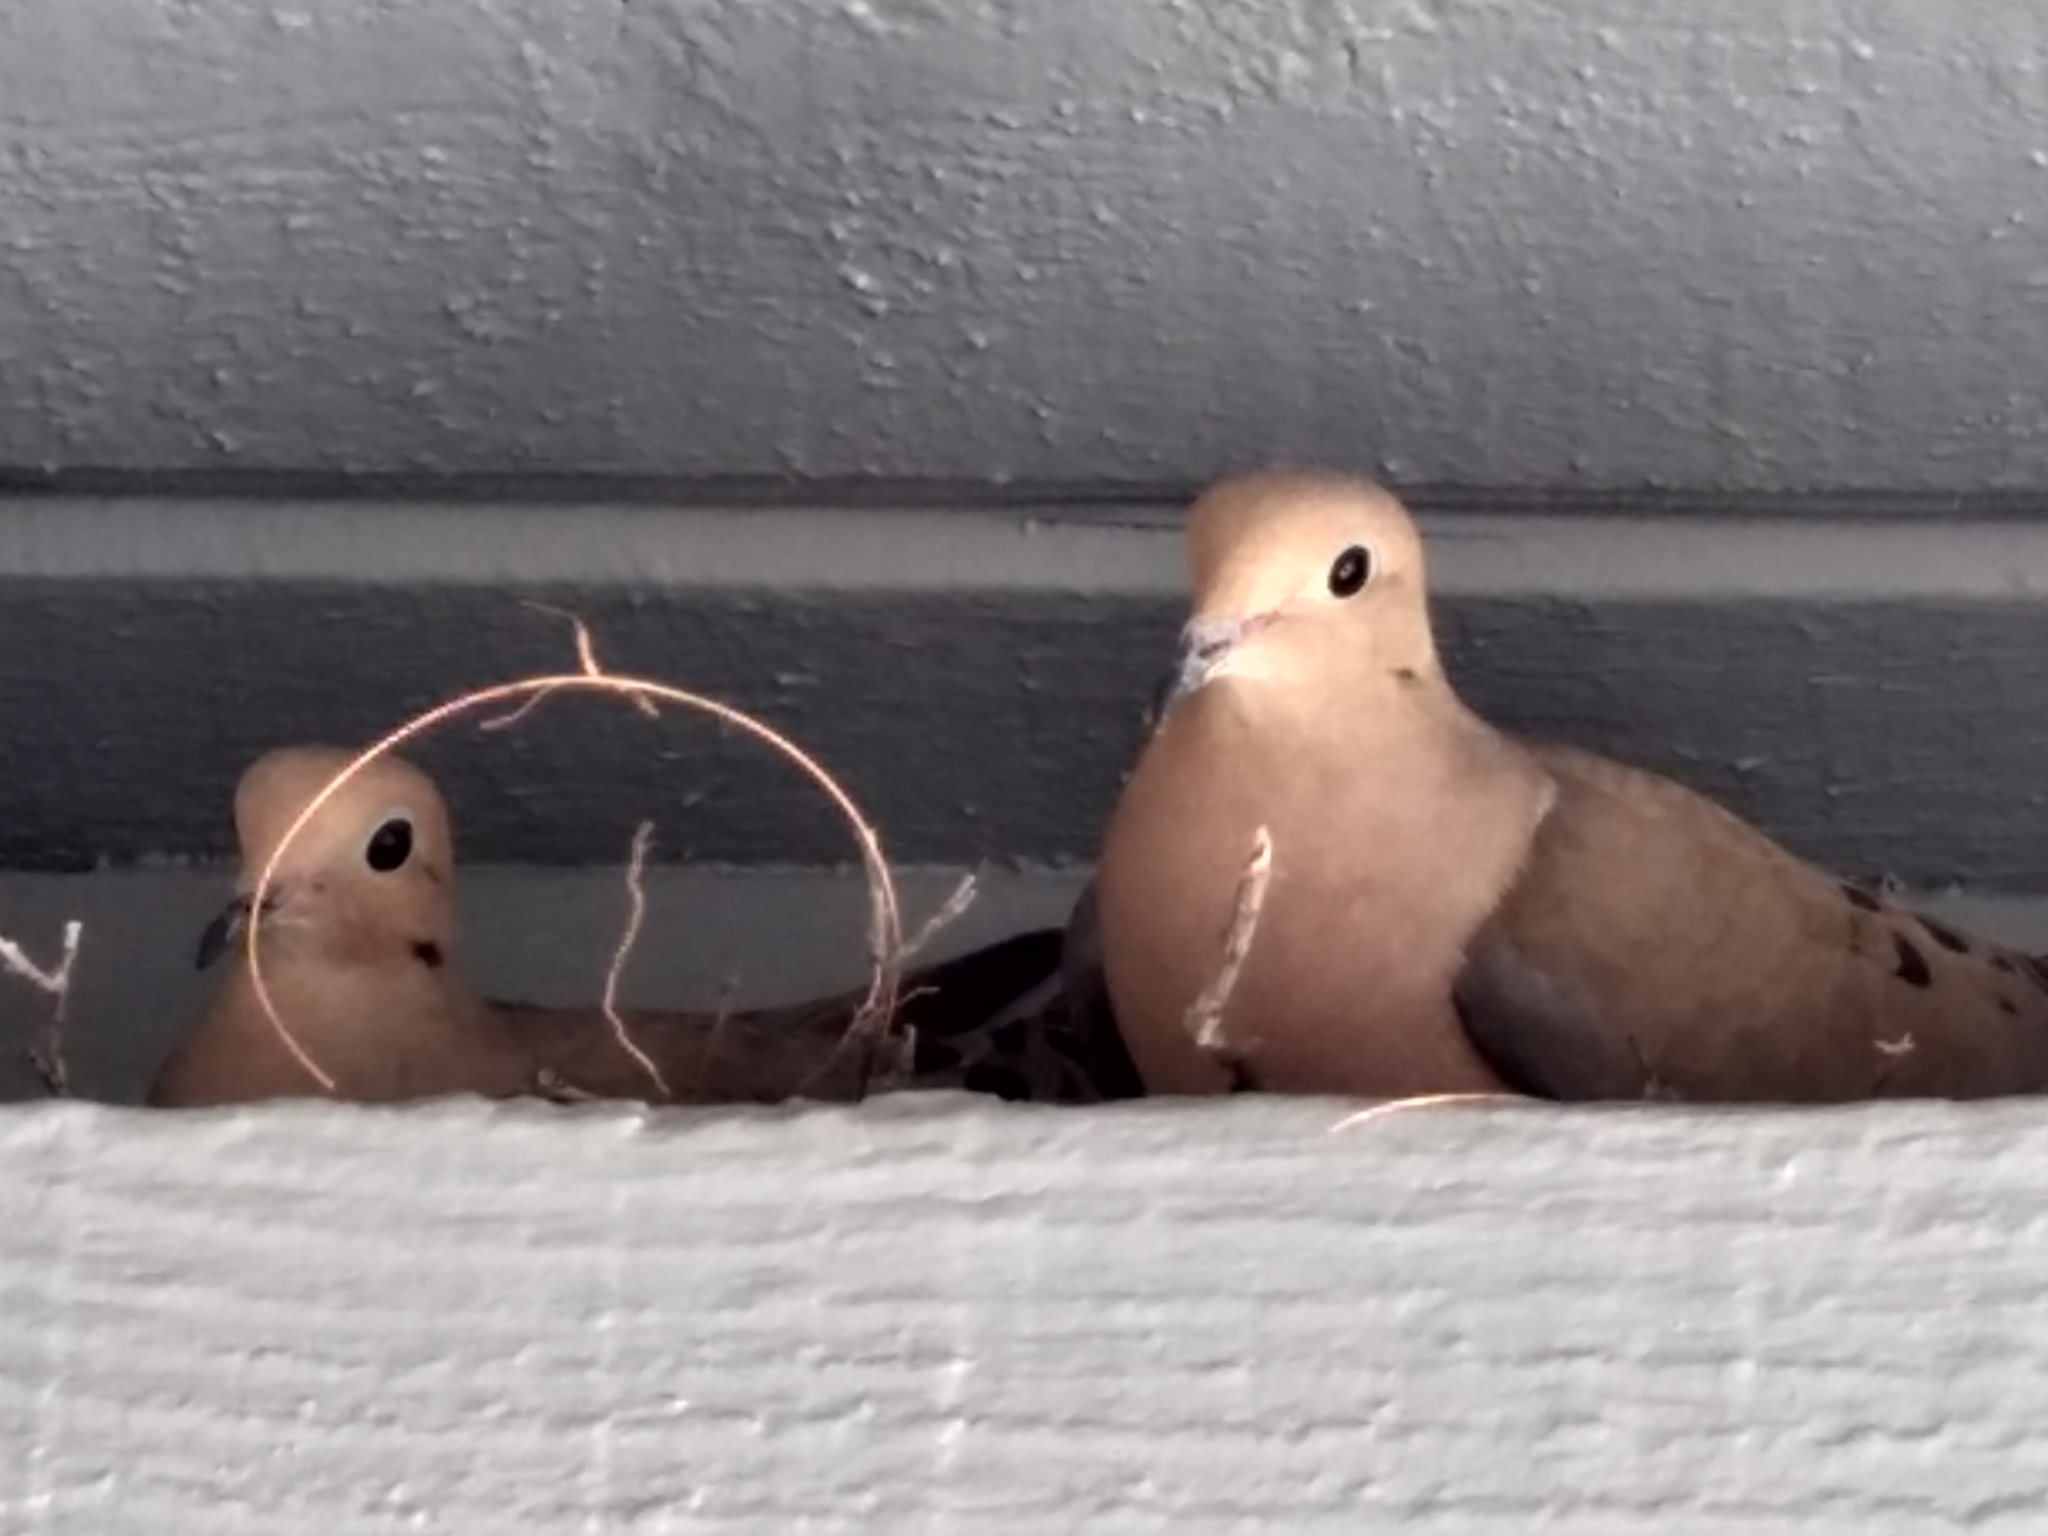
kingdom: Animalia
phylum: Chordata
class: Aves
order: Columbiformes
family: Columbidae
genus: Zenaida
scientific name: Zenaida macroura
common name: Mourning dove
